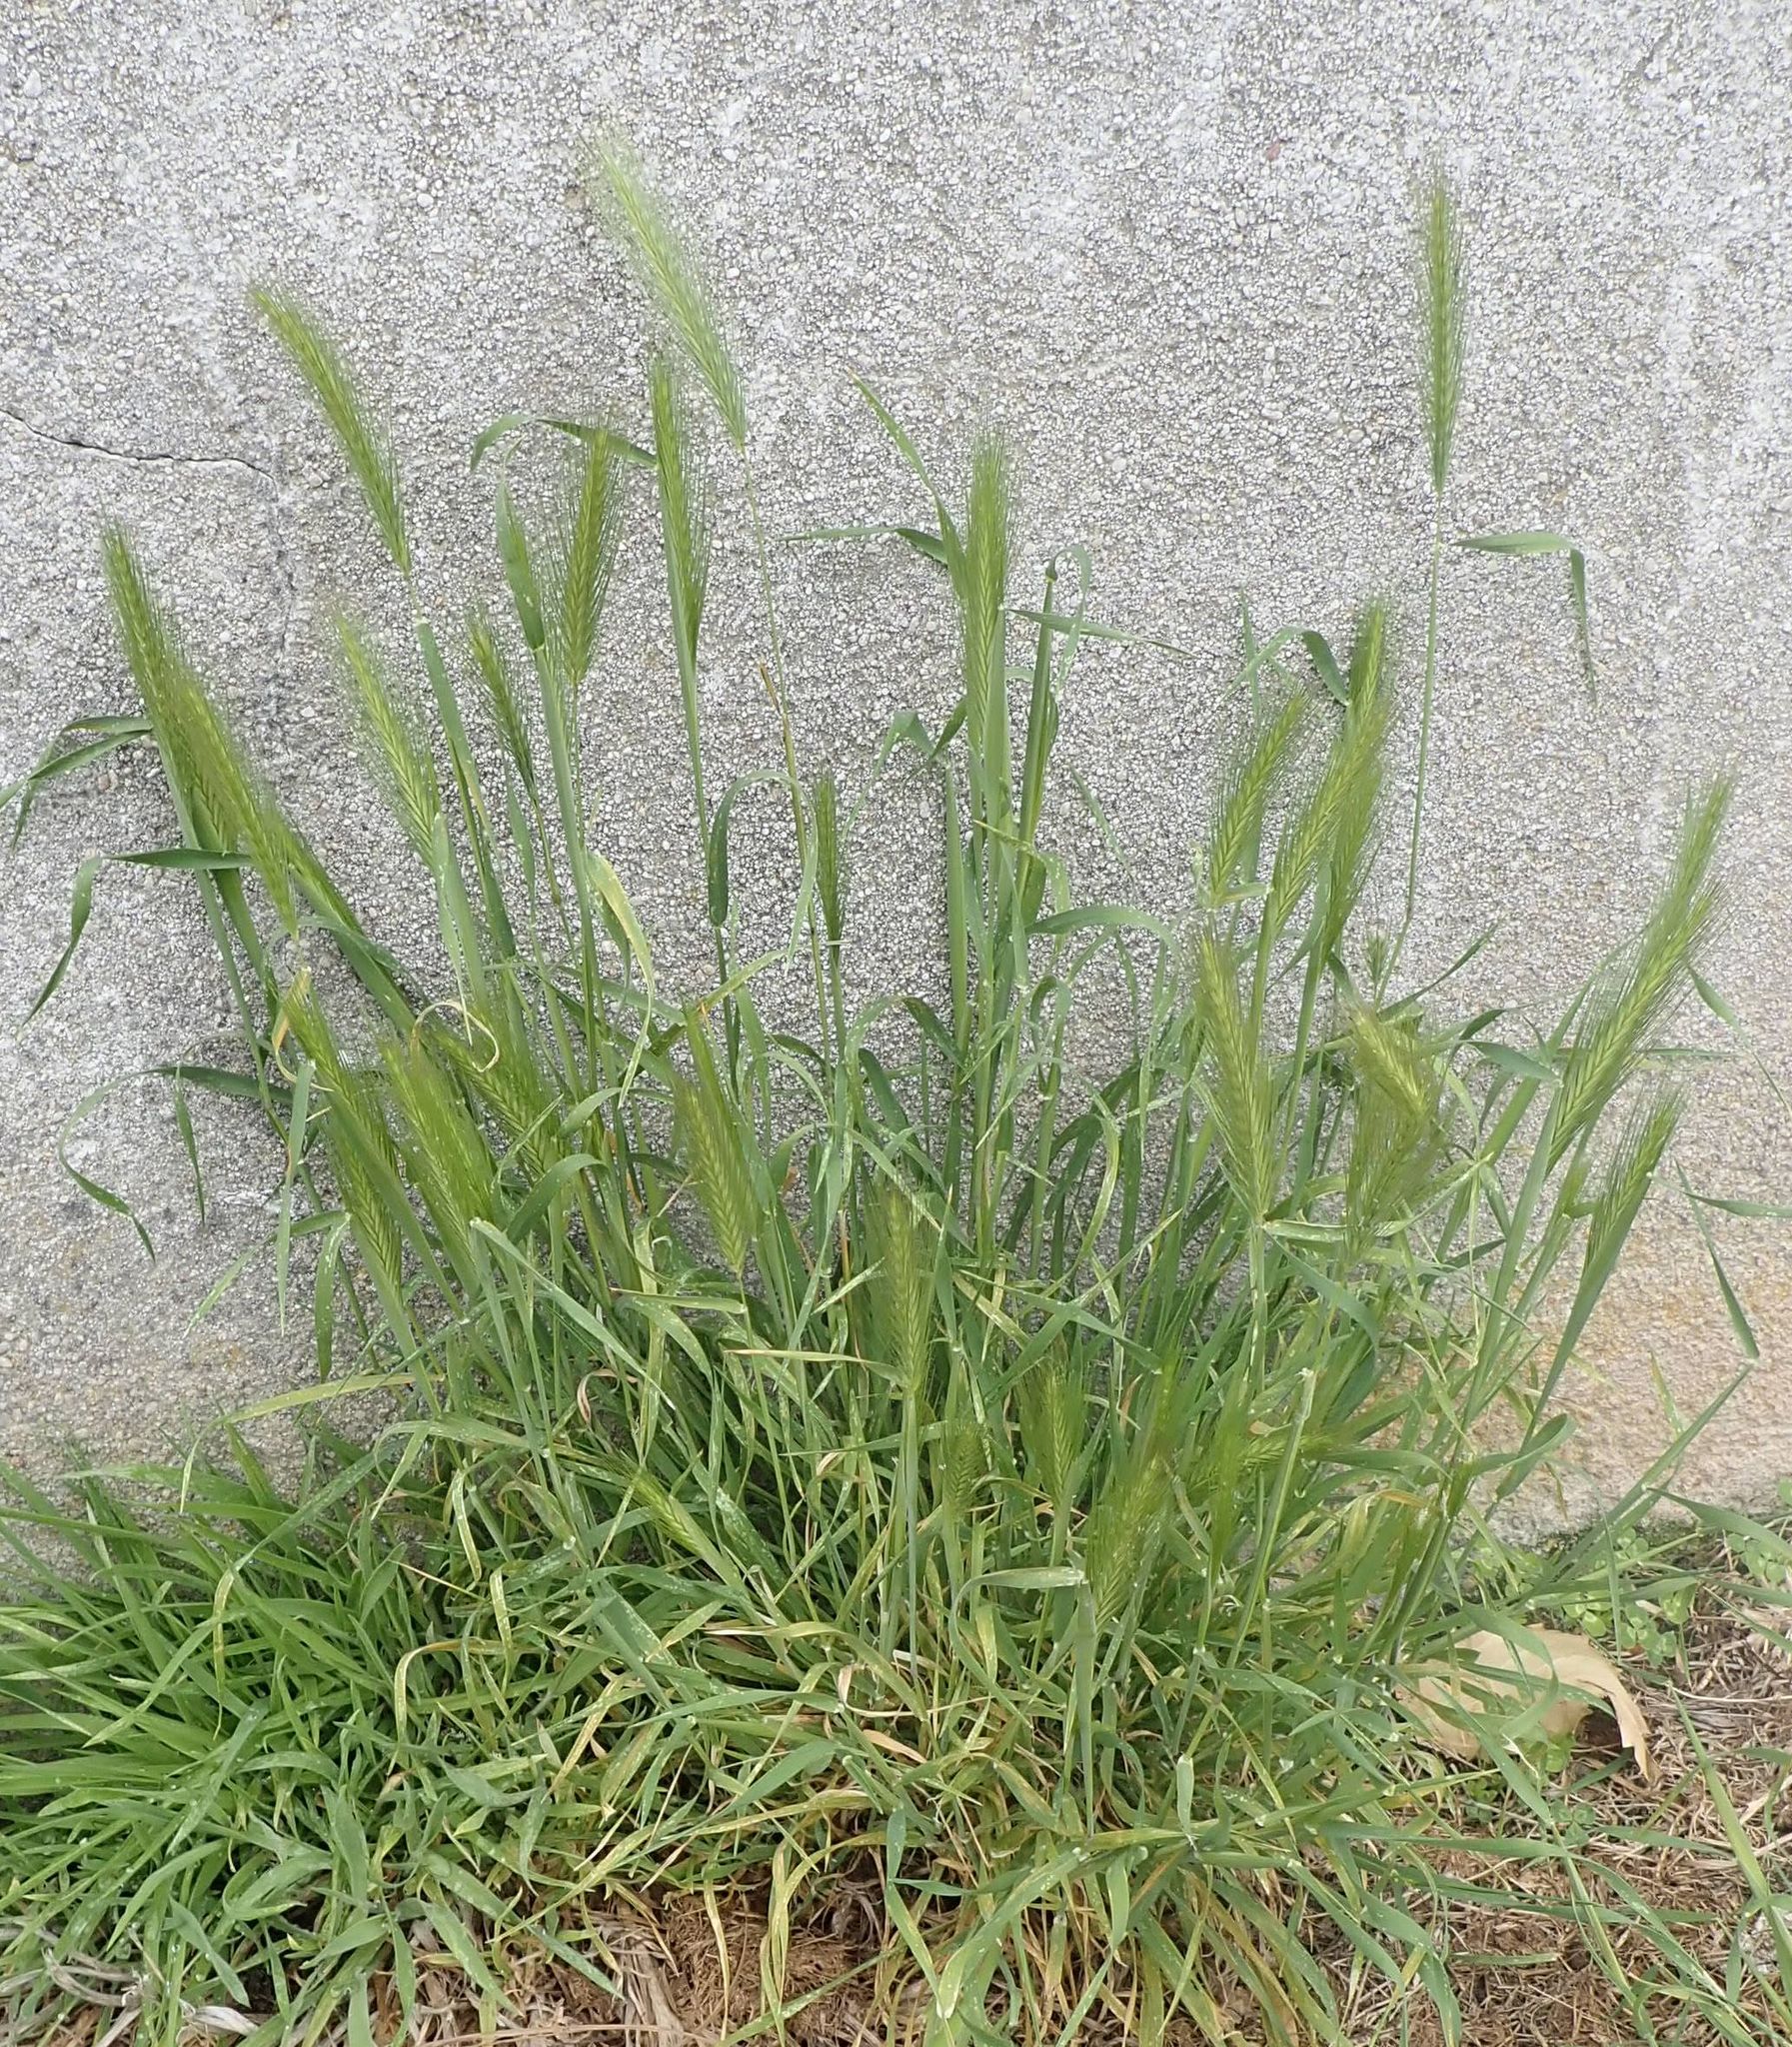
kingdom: Plantae
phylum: Tracheophyta
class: Liliopsida
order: Poales
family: Poaceae
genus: Hordeum
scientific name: Hordeum murinum
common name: Wall barley
